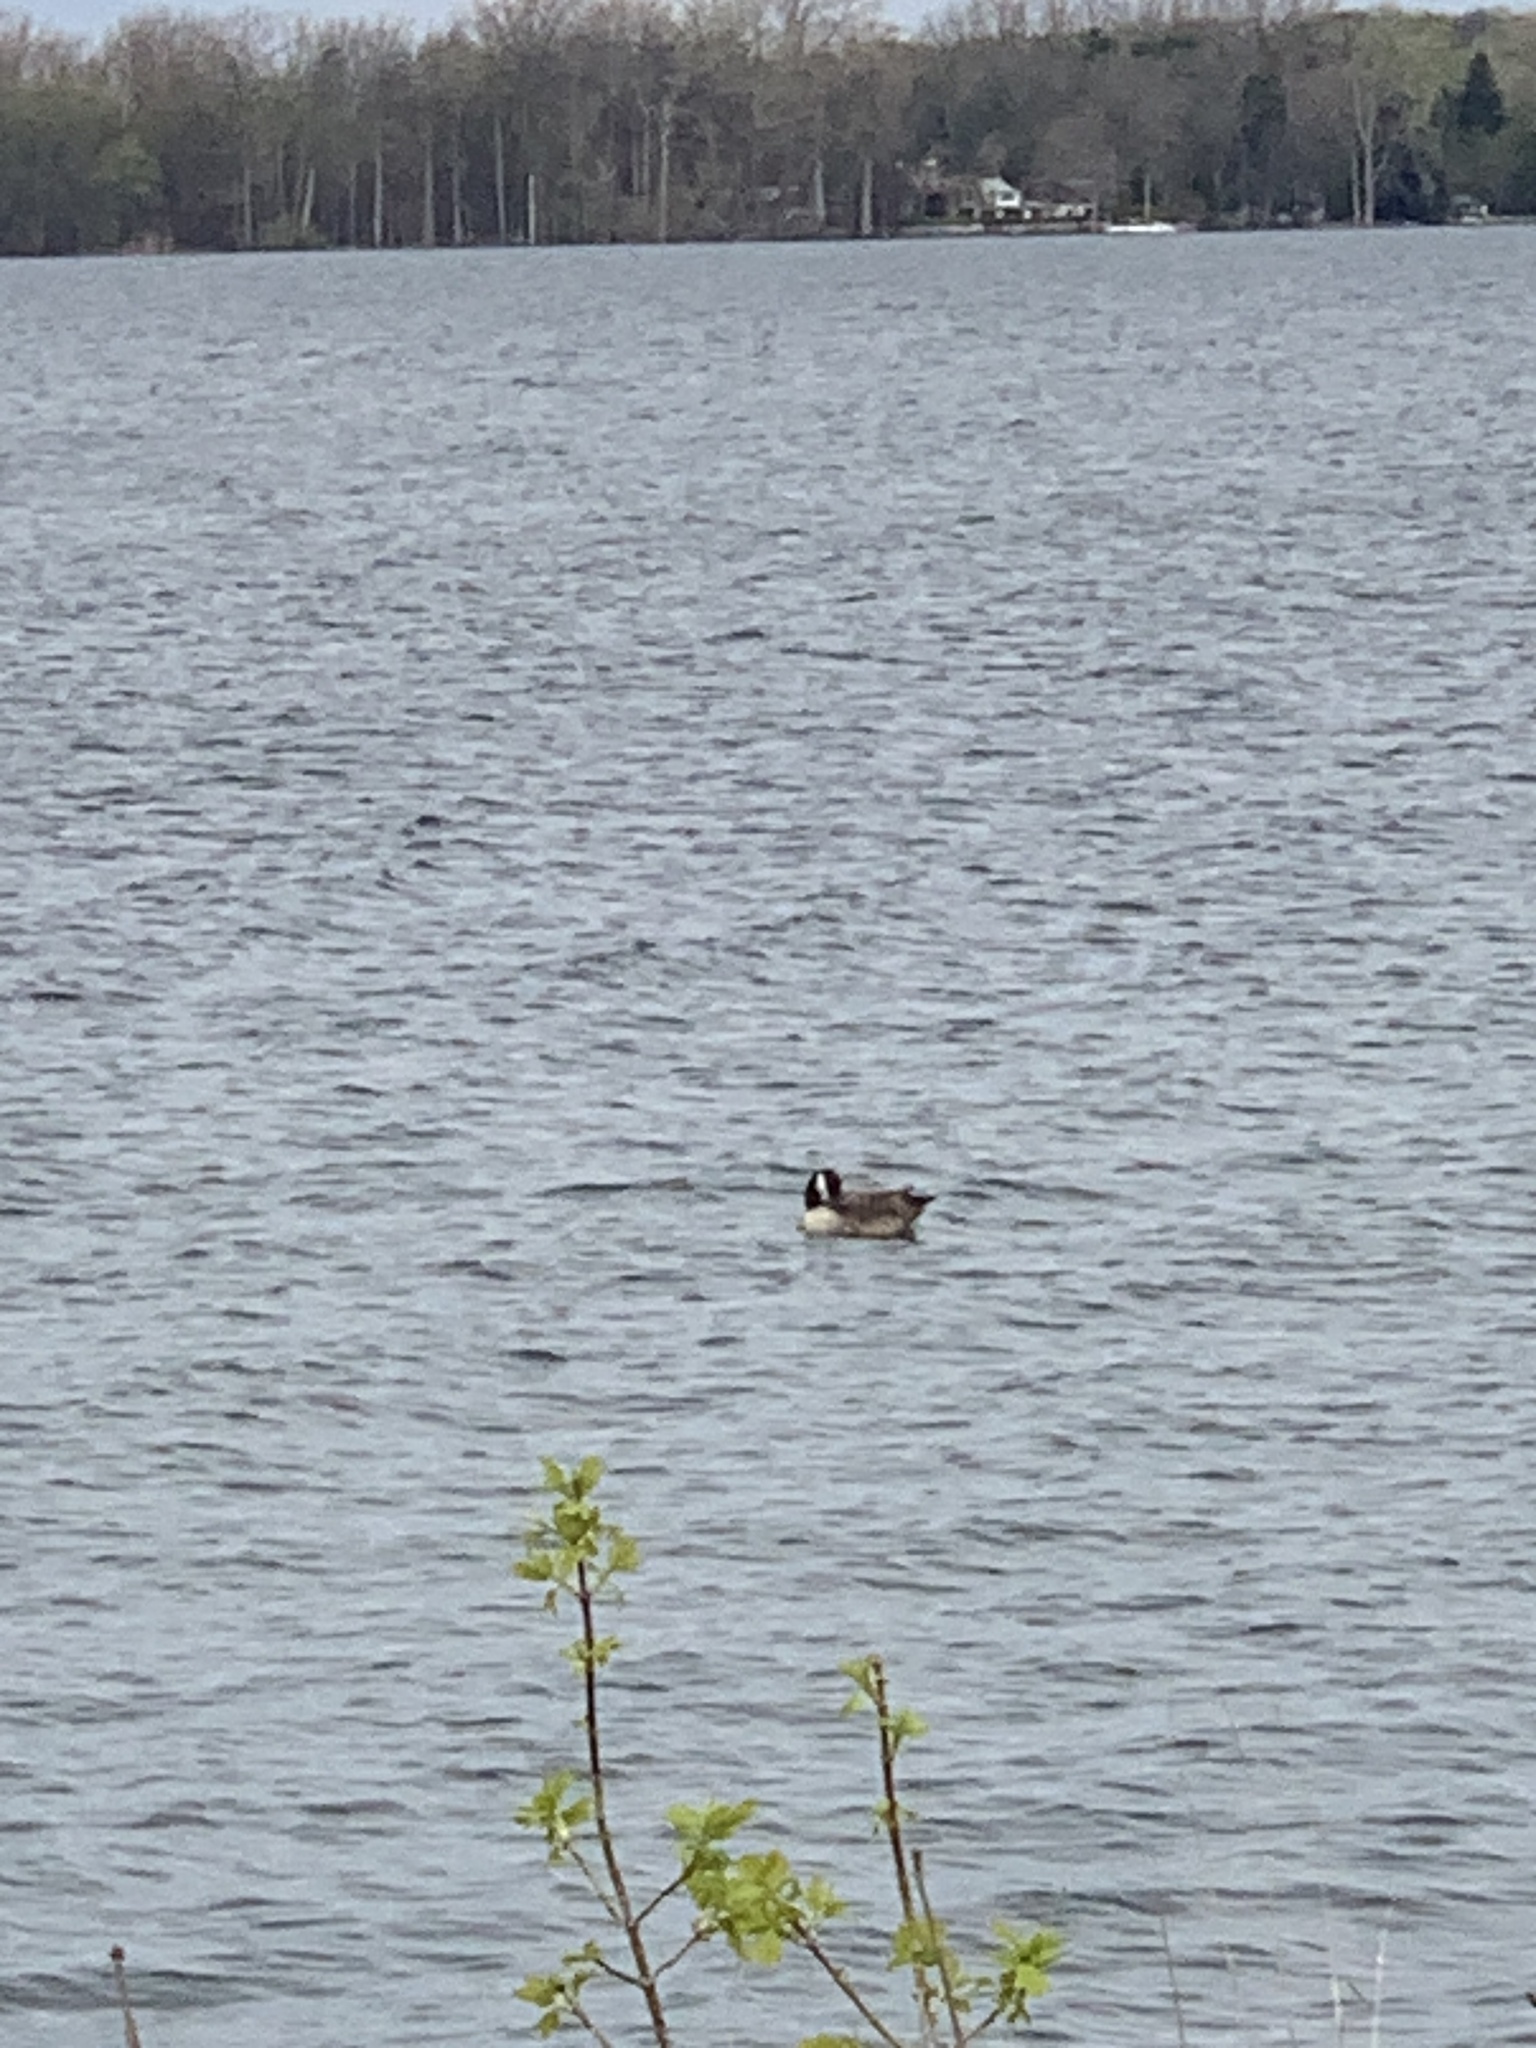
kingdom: Animalia
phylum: Chordata
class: Aves
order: Anseriformes
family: Anatidae
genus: Branta
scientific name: Branta canadensis
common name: Canada goose
